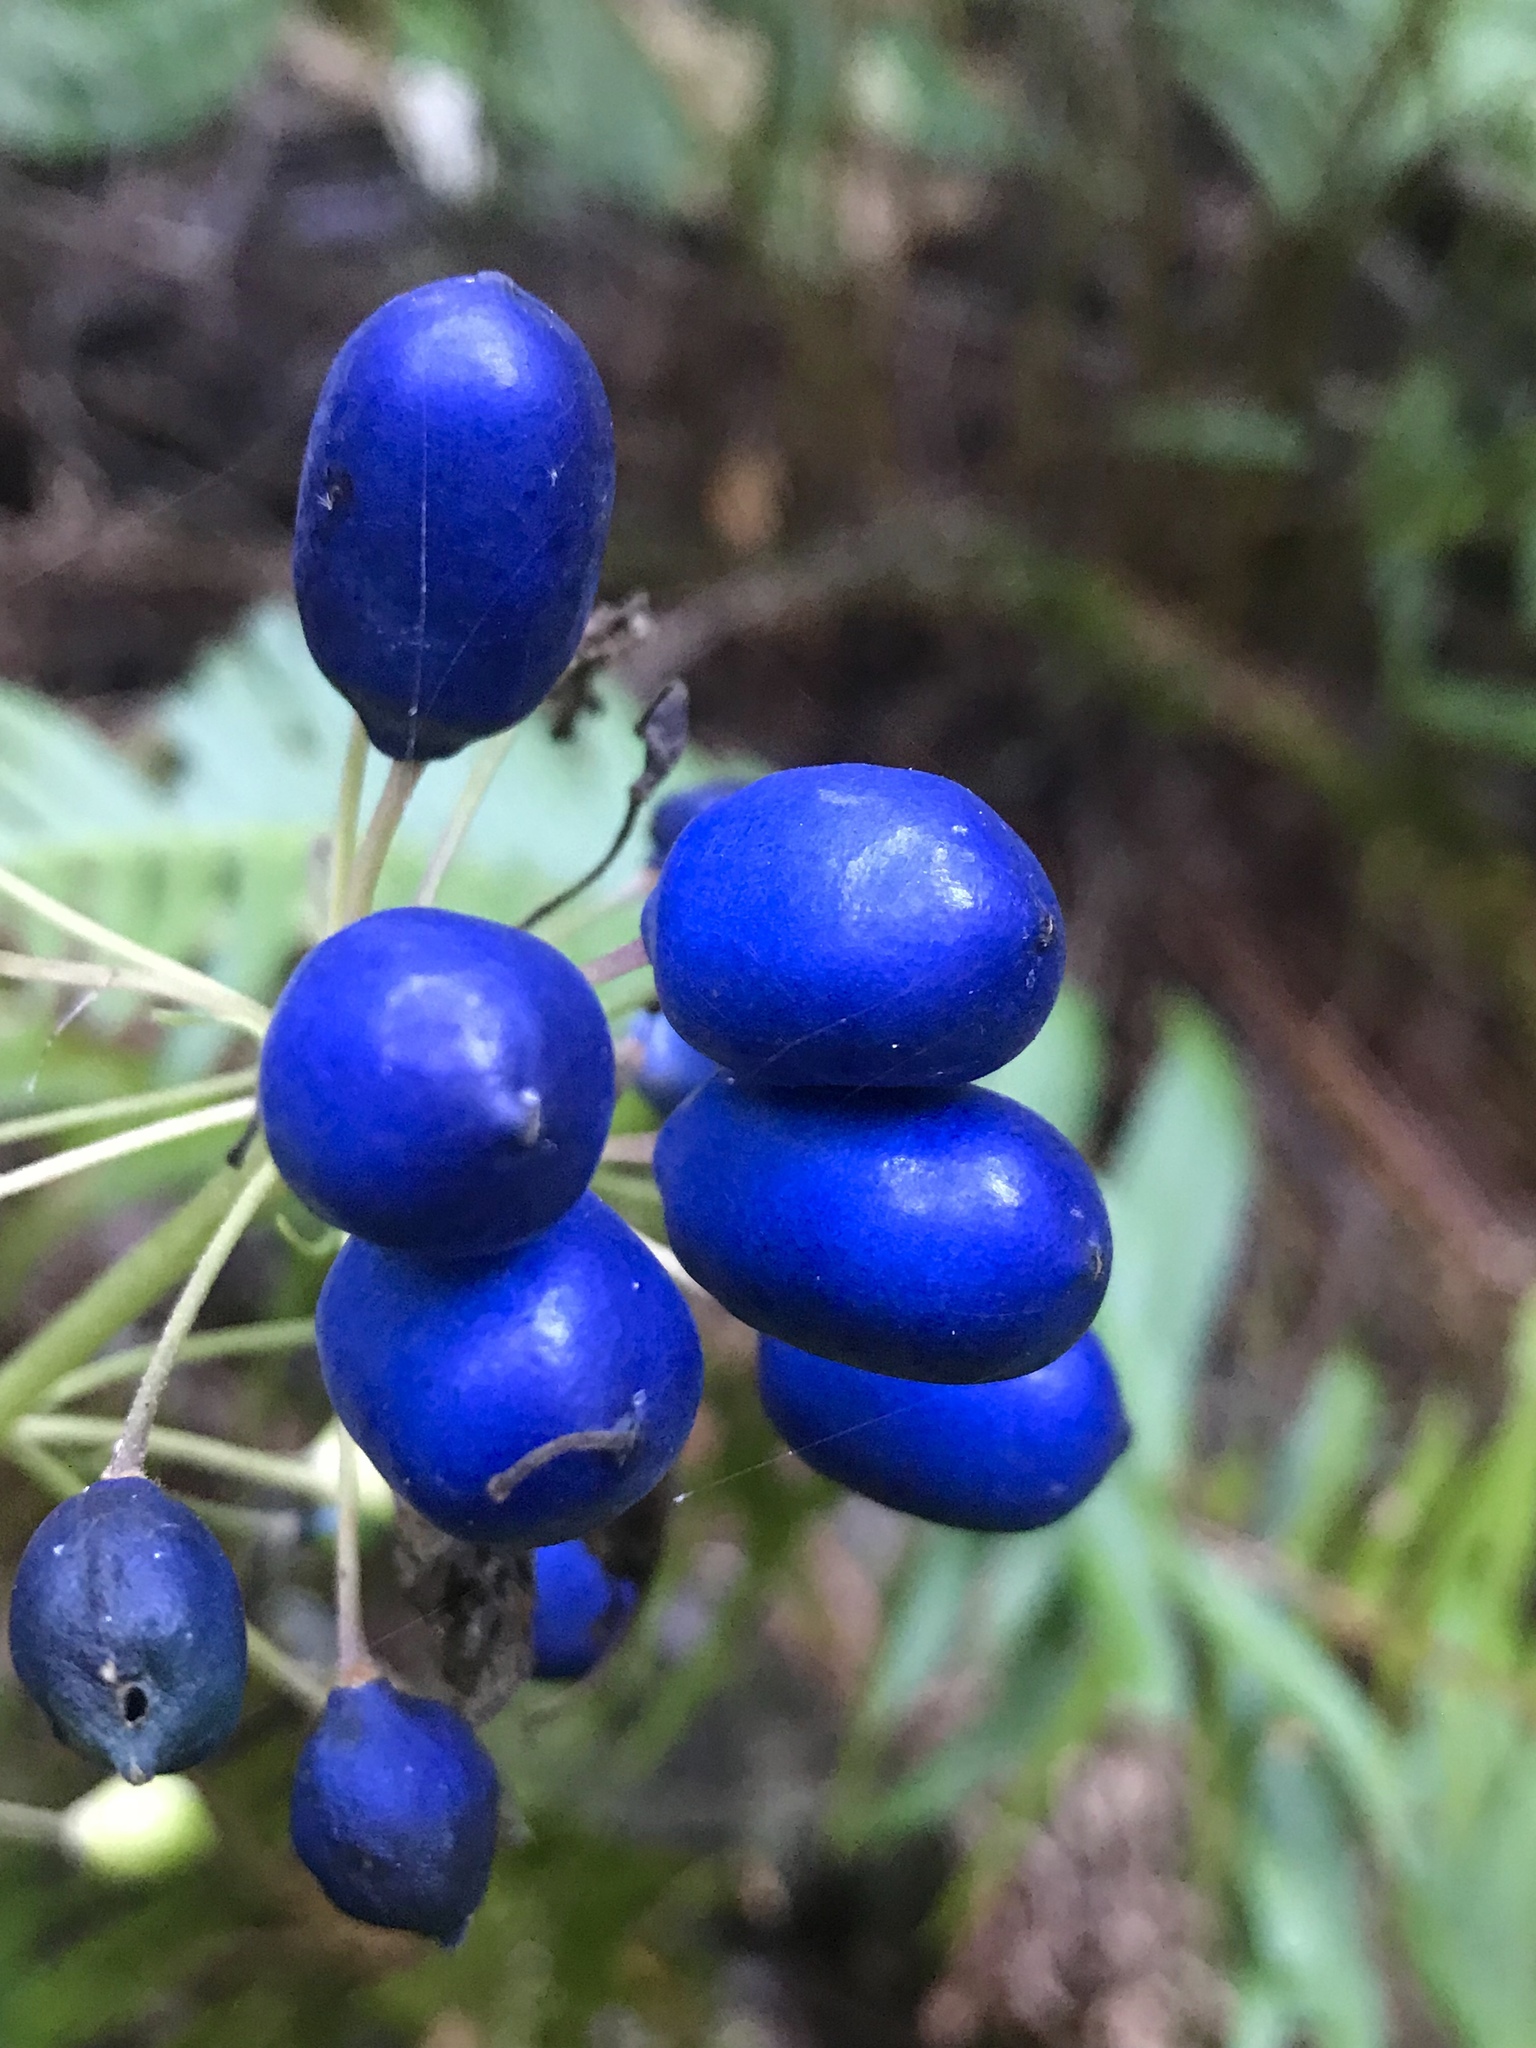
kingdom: Plantae
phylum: Tracheophyta
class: Liliopsida
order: Liliales
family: Liliaceae
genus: Clintonia
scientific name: Clintonia andrewsiana
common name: Red clintonia
